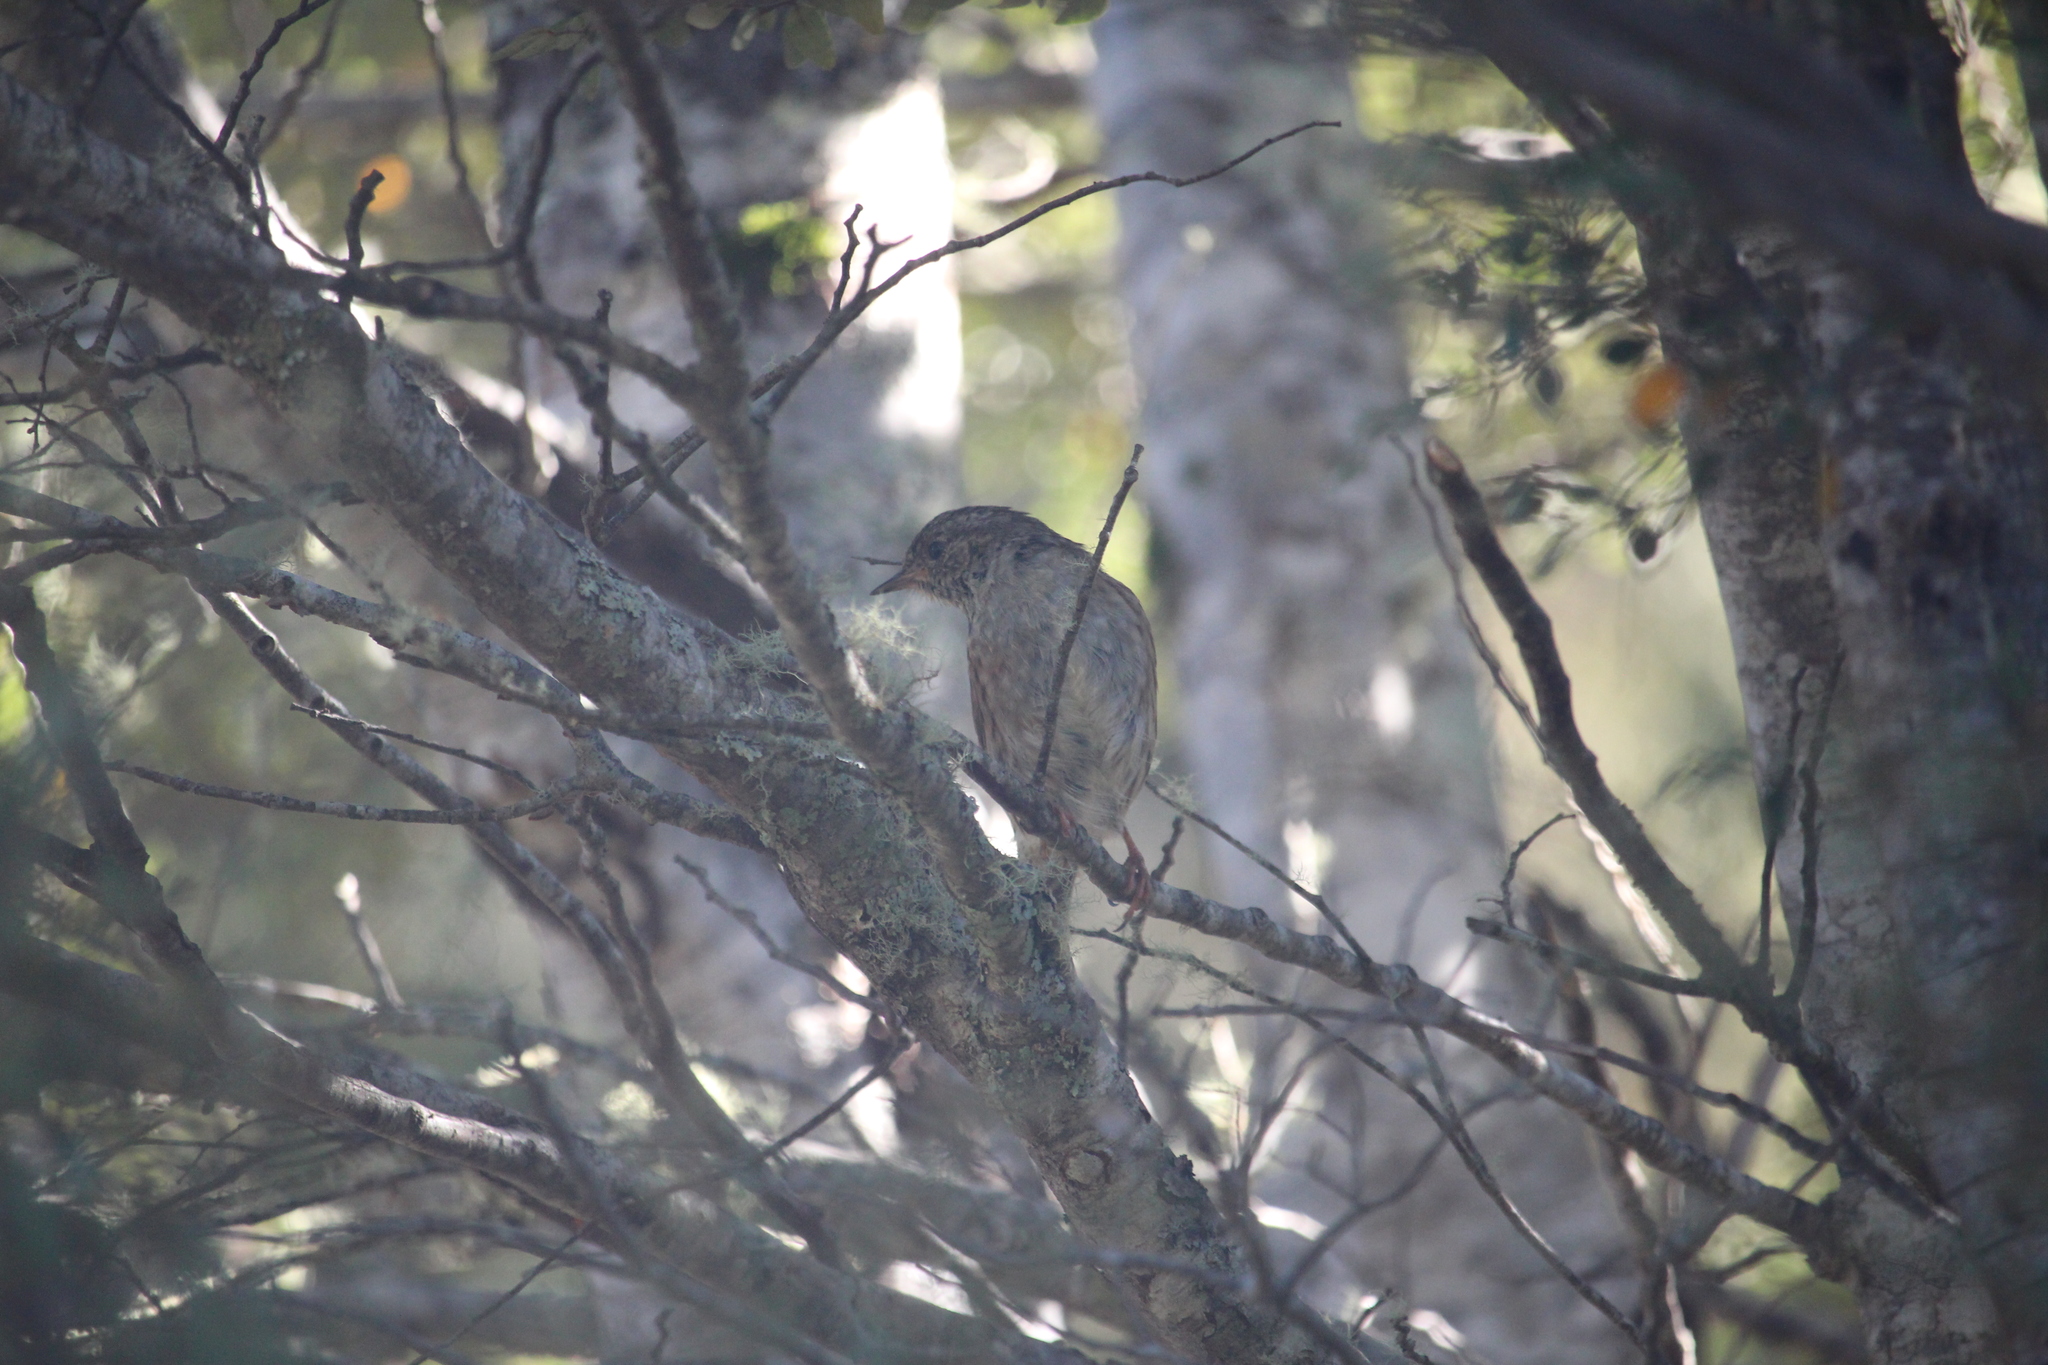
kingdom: Animalia
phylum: Chordata
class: Aves
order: Passeriformes
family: Prunellidae
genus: Prunella
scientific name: Prunella modularis
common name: Dunnock
